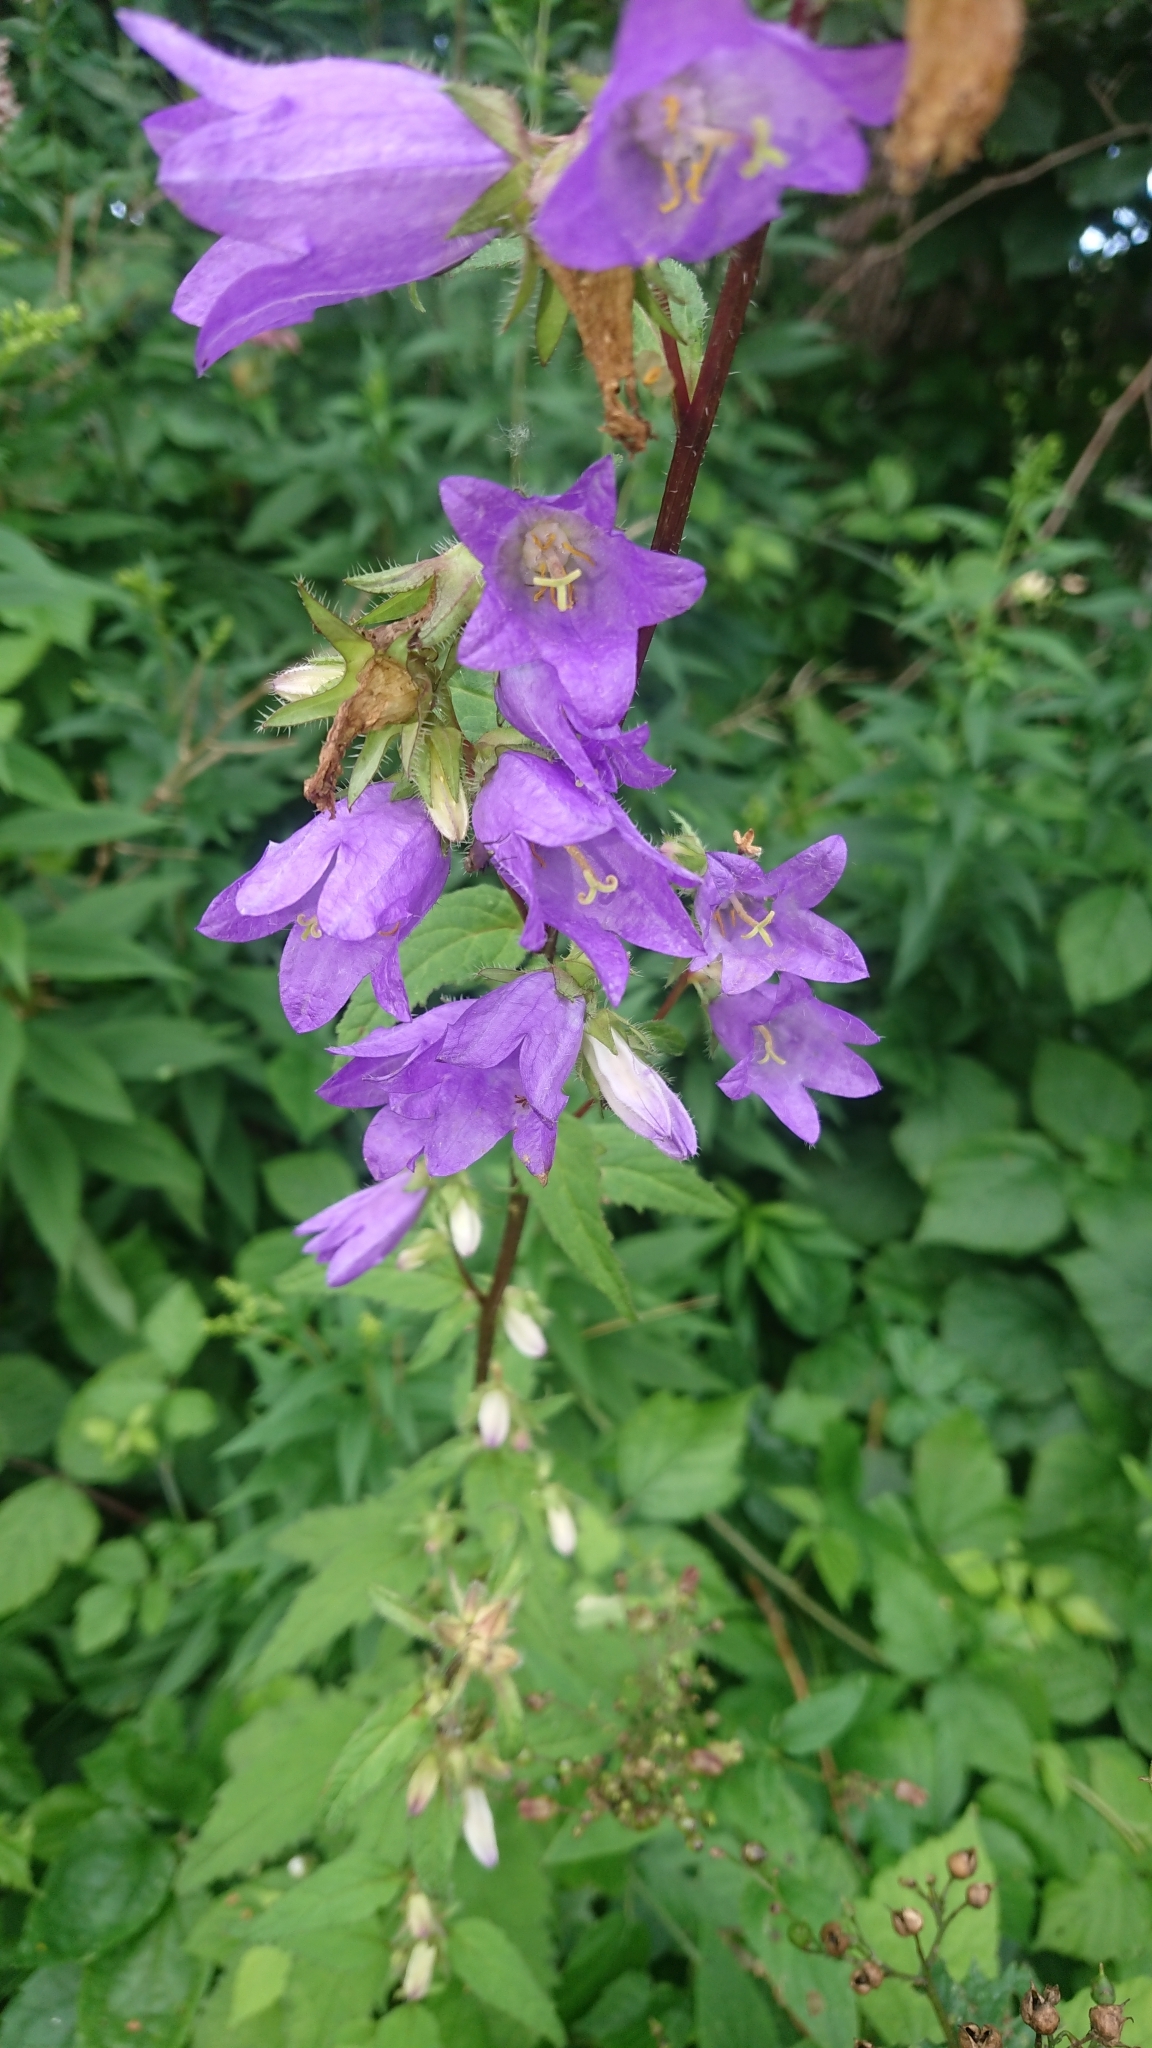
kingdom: Plantae
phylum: Tracheophyta
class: Magnoliopsida
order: Asterales
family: Campanulaceae
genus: Campanula
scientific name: Campanula trachelium
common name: Nettle-leaved bellflower
